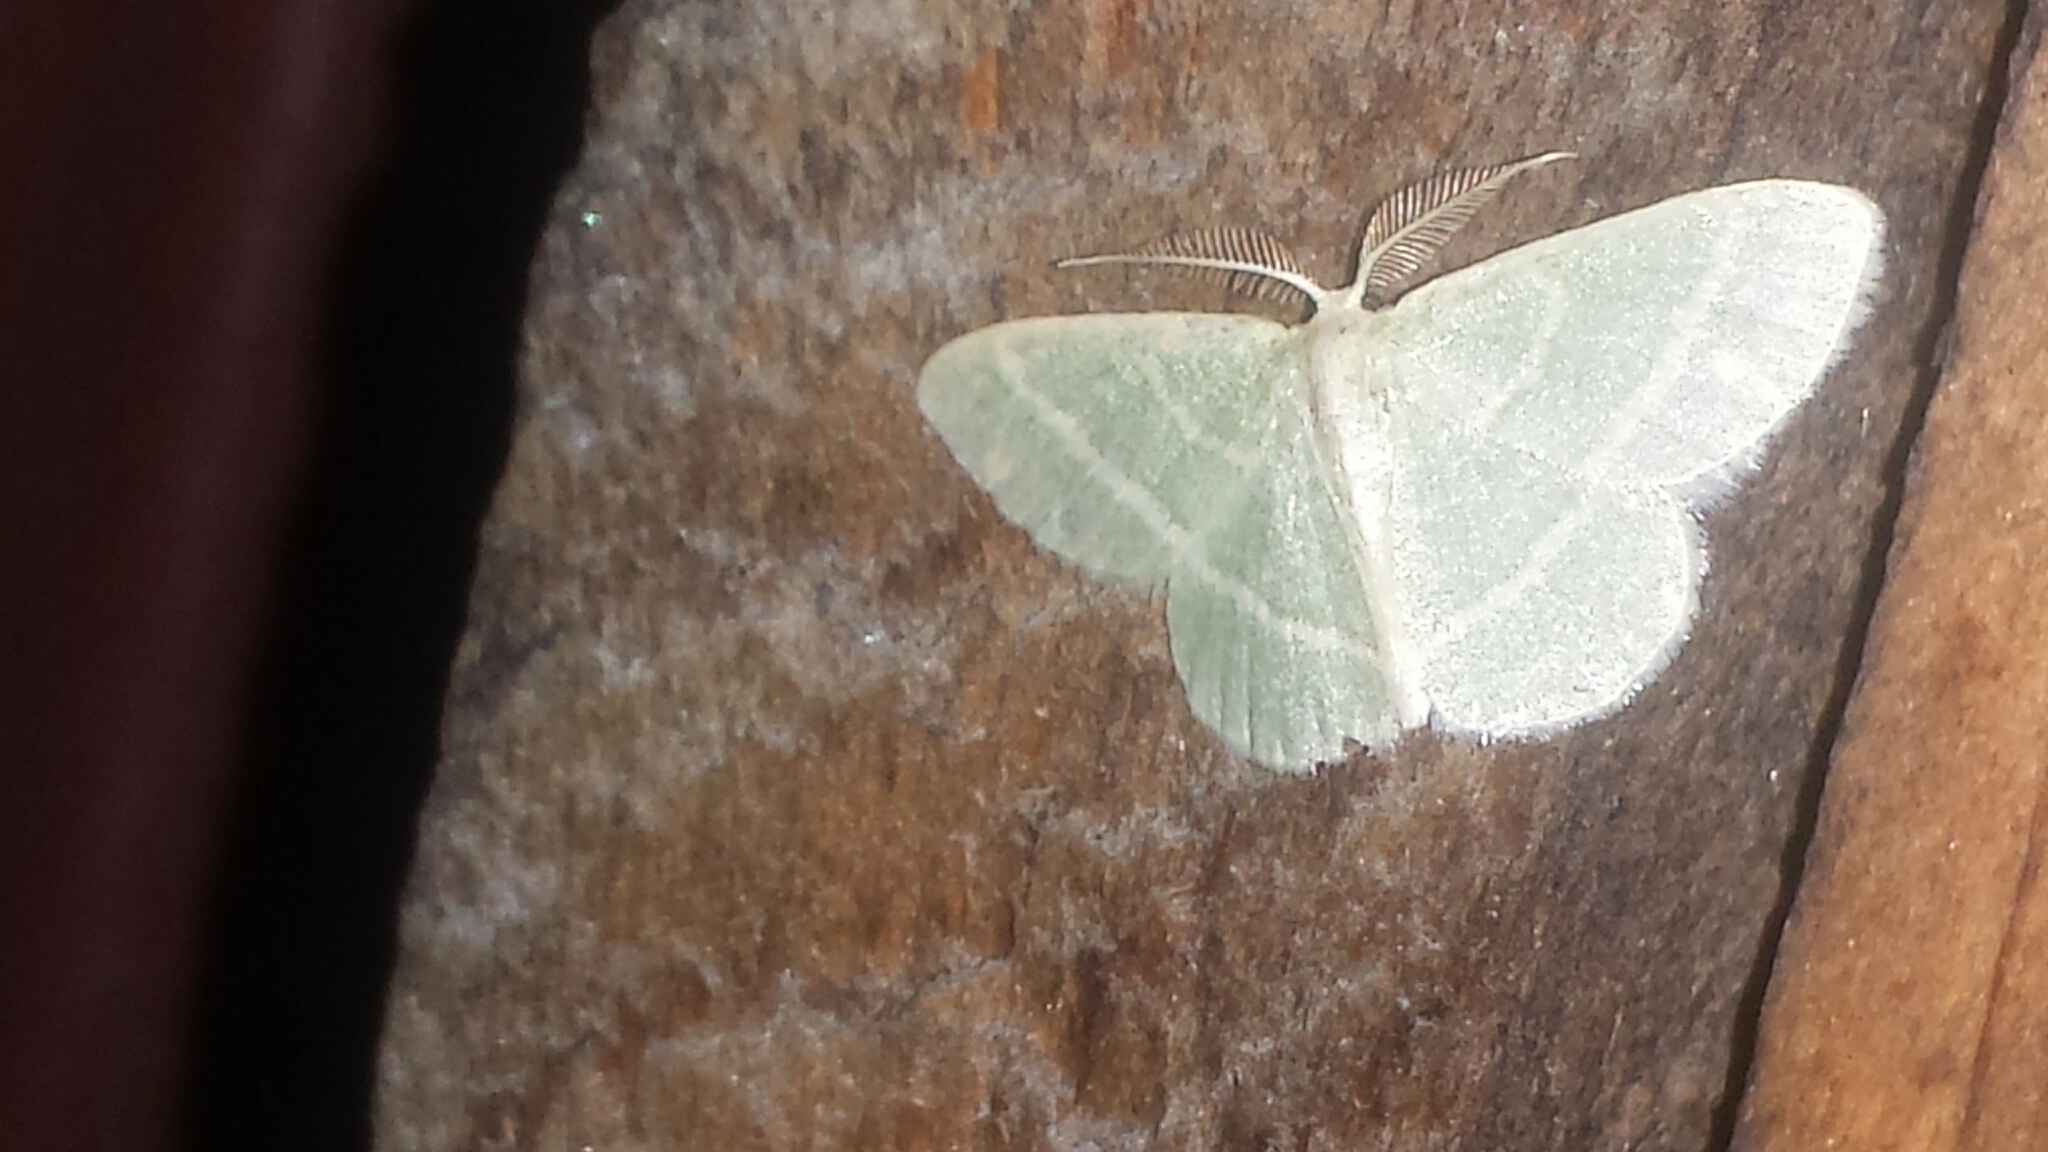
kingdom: Animalia
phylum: Arthropoda
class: Insecta
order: Lepidoptera
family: Geometridae
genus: Chlorochlamys
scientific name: Chlorochlamys chloroleucaria
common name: Blackberry looper
